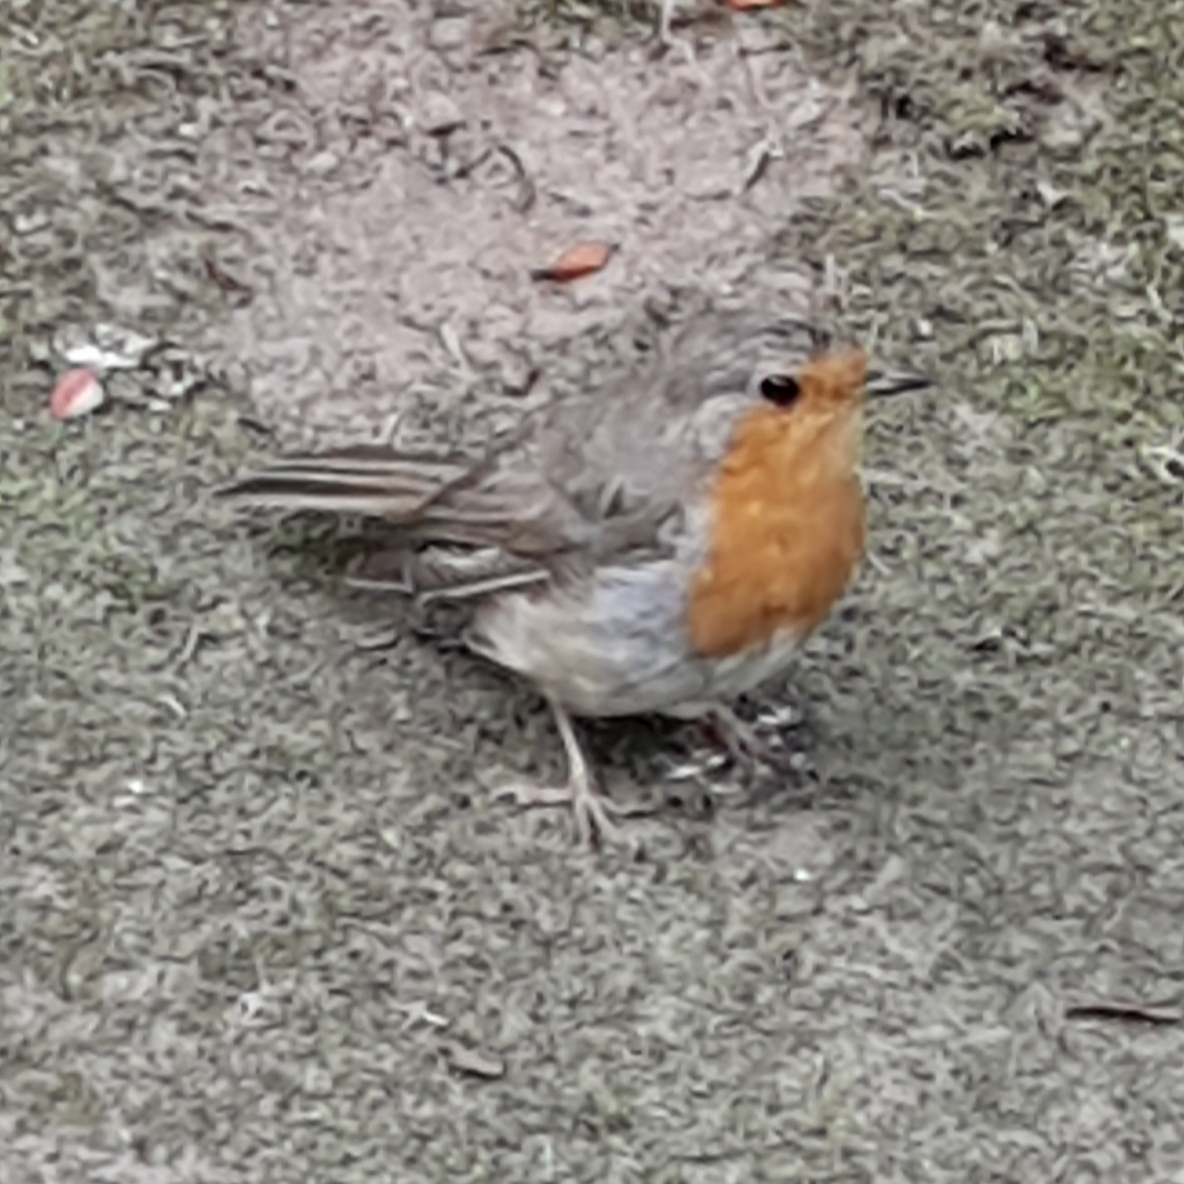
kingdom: Animalia
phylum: Chordata
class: Aves
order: Passeriformes
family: Muscicapidae
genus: Erithacus
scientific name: Erithacus rubecula
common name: European robin
